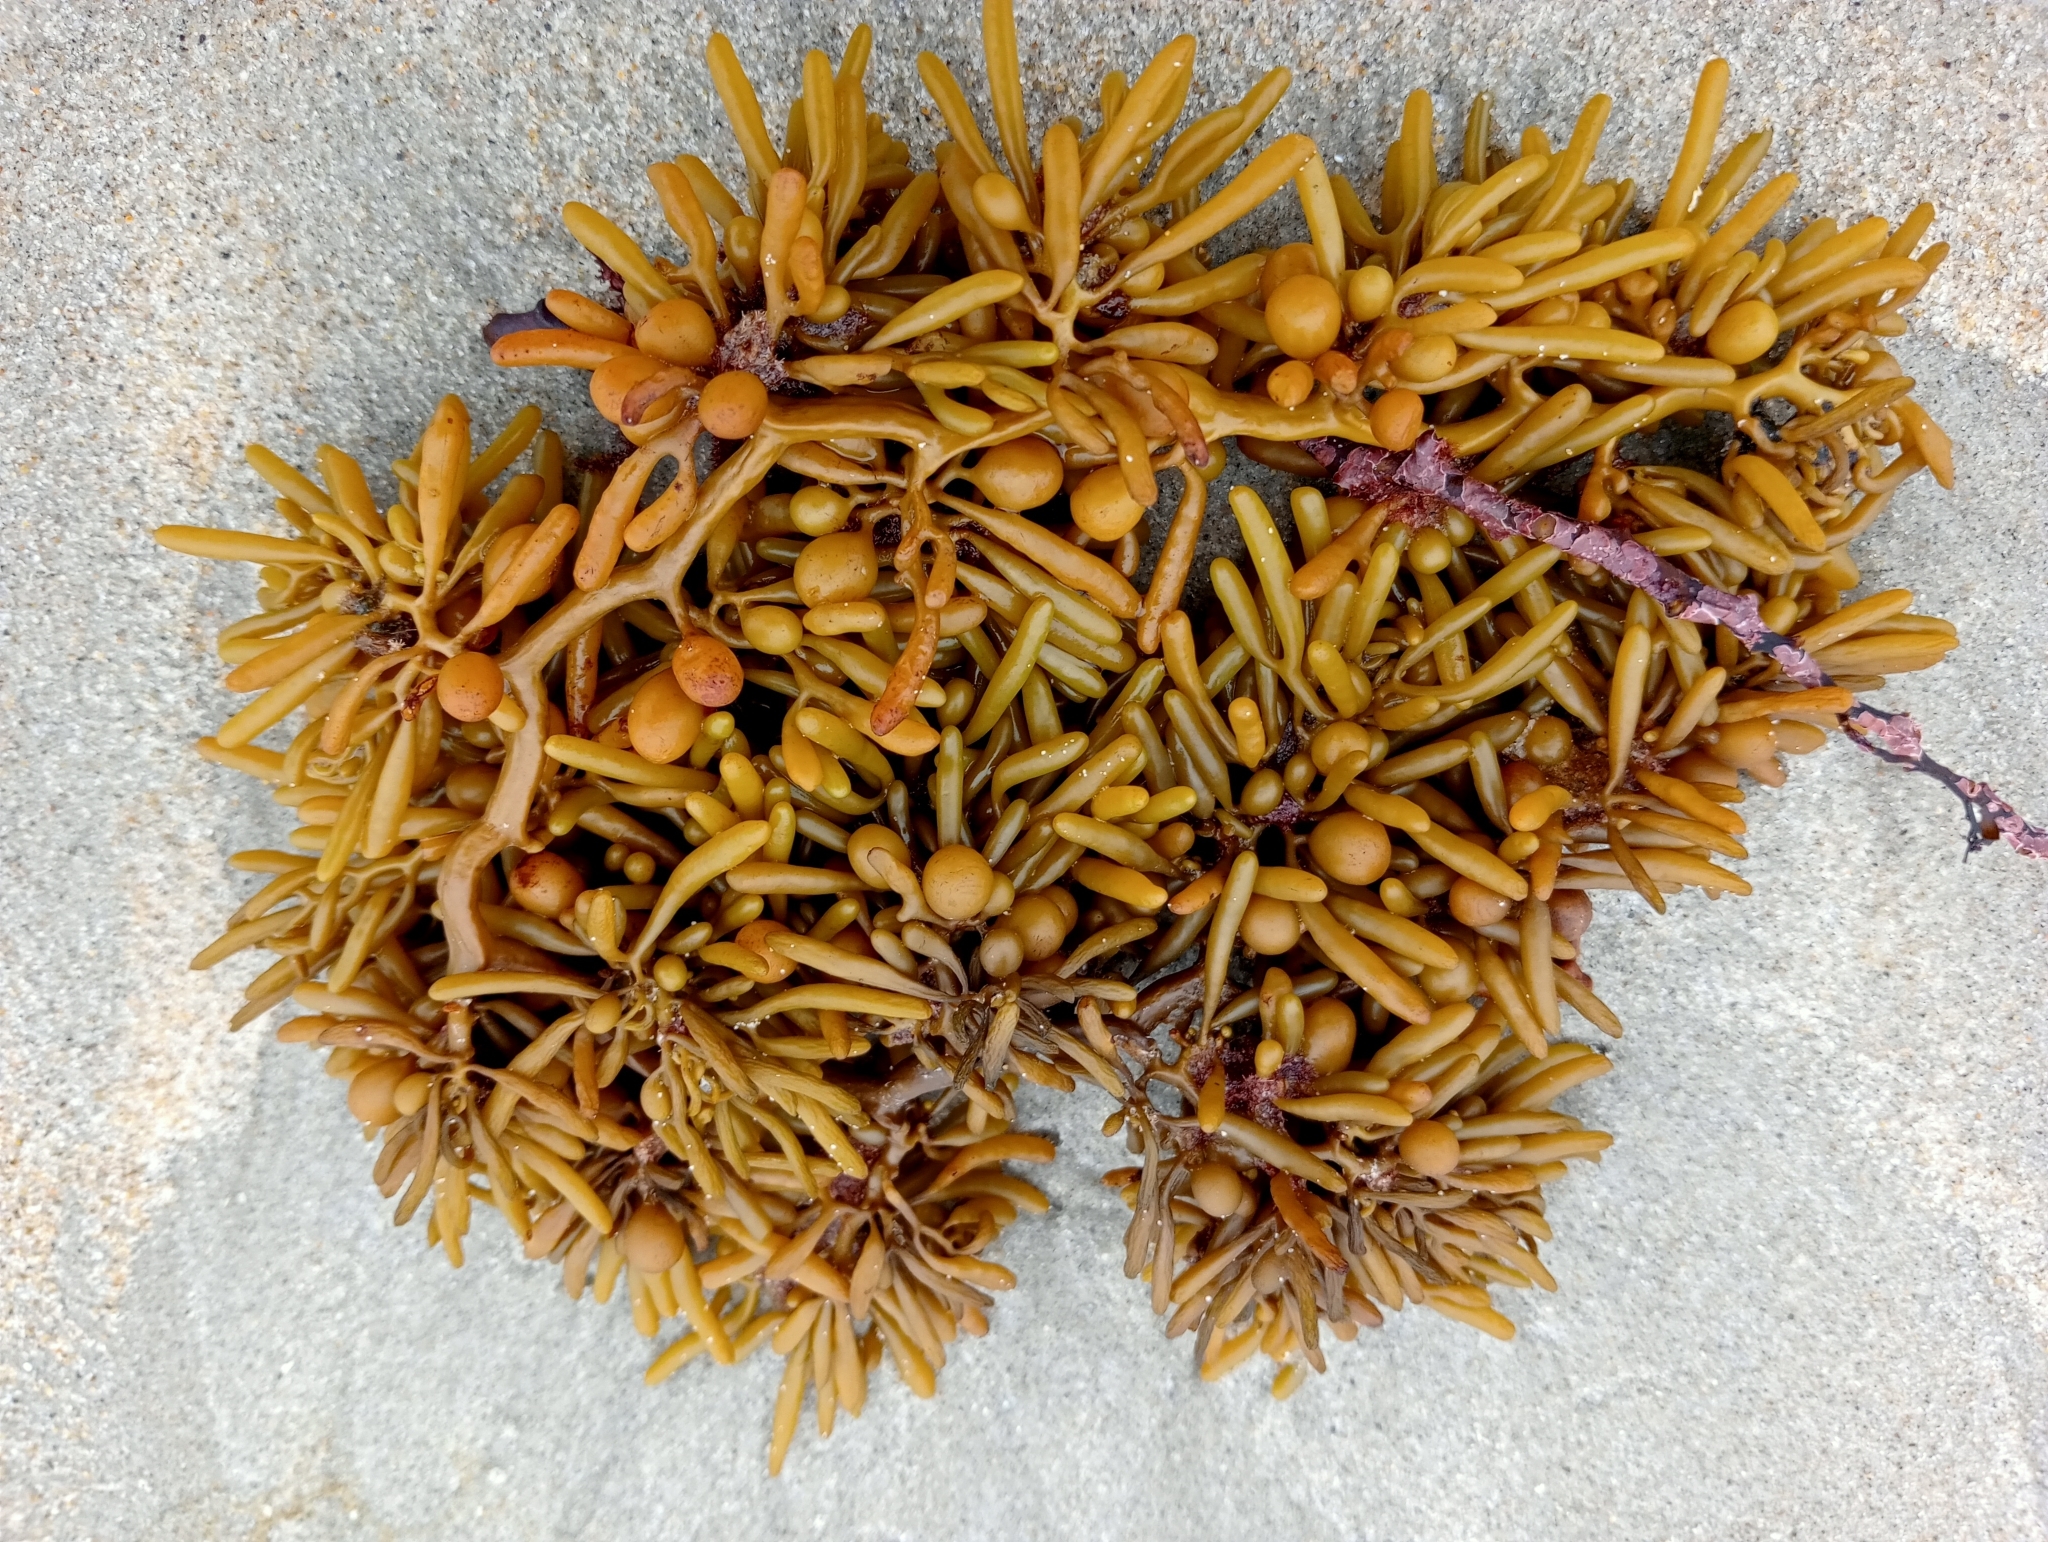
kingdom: Chromista
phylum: Ochrophyta
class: Phaeophyceae
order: Fucales
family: Sargassaceae
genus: Cystophora
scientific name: Cystophora torulosa
